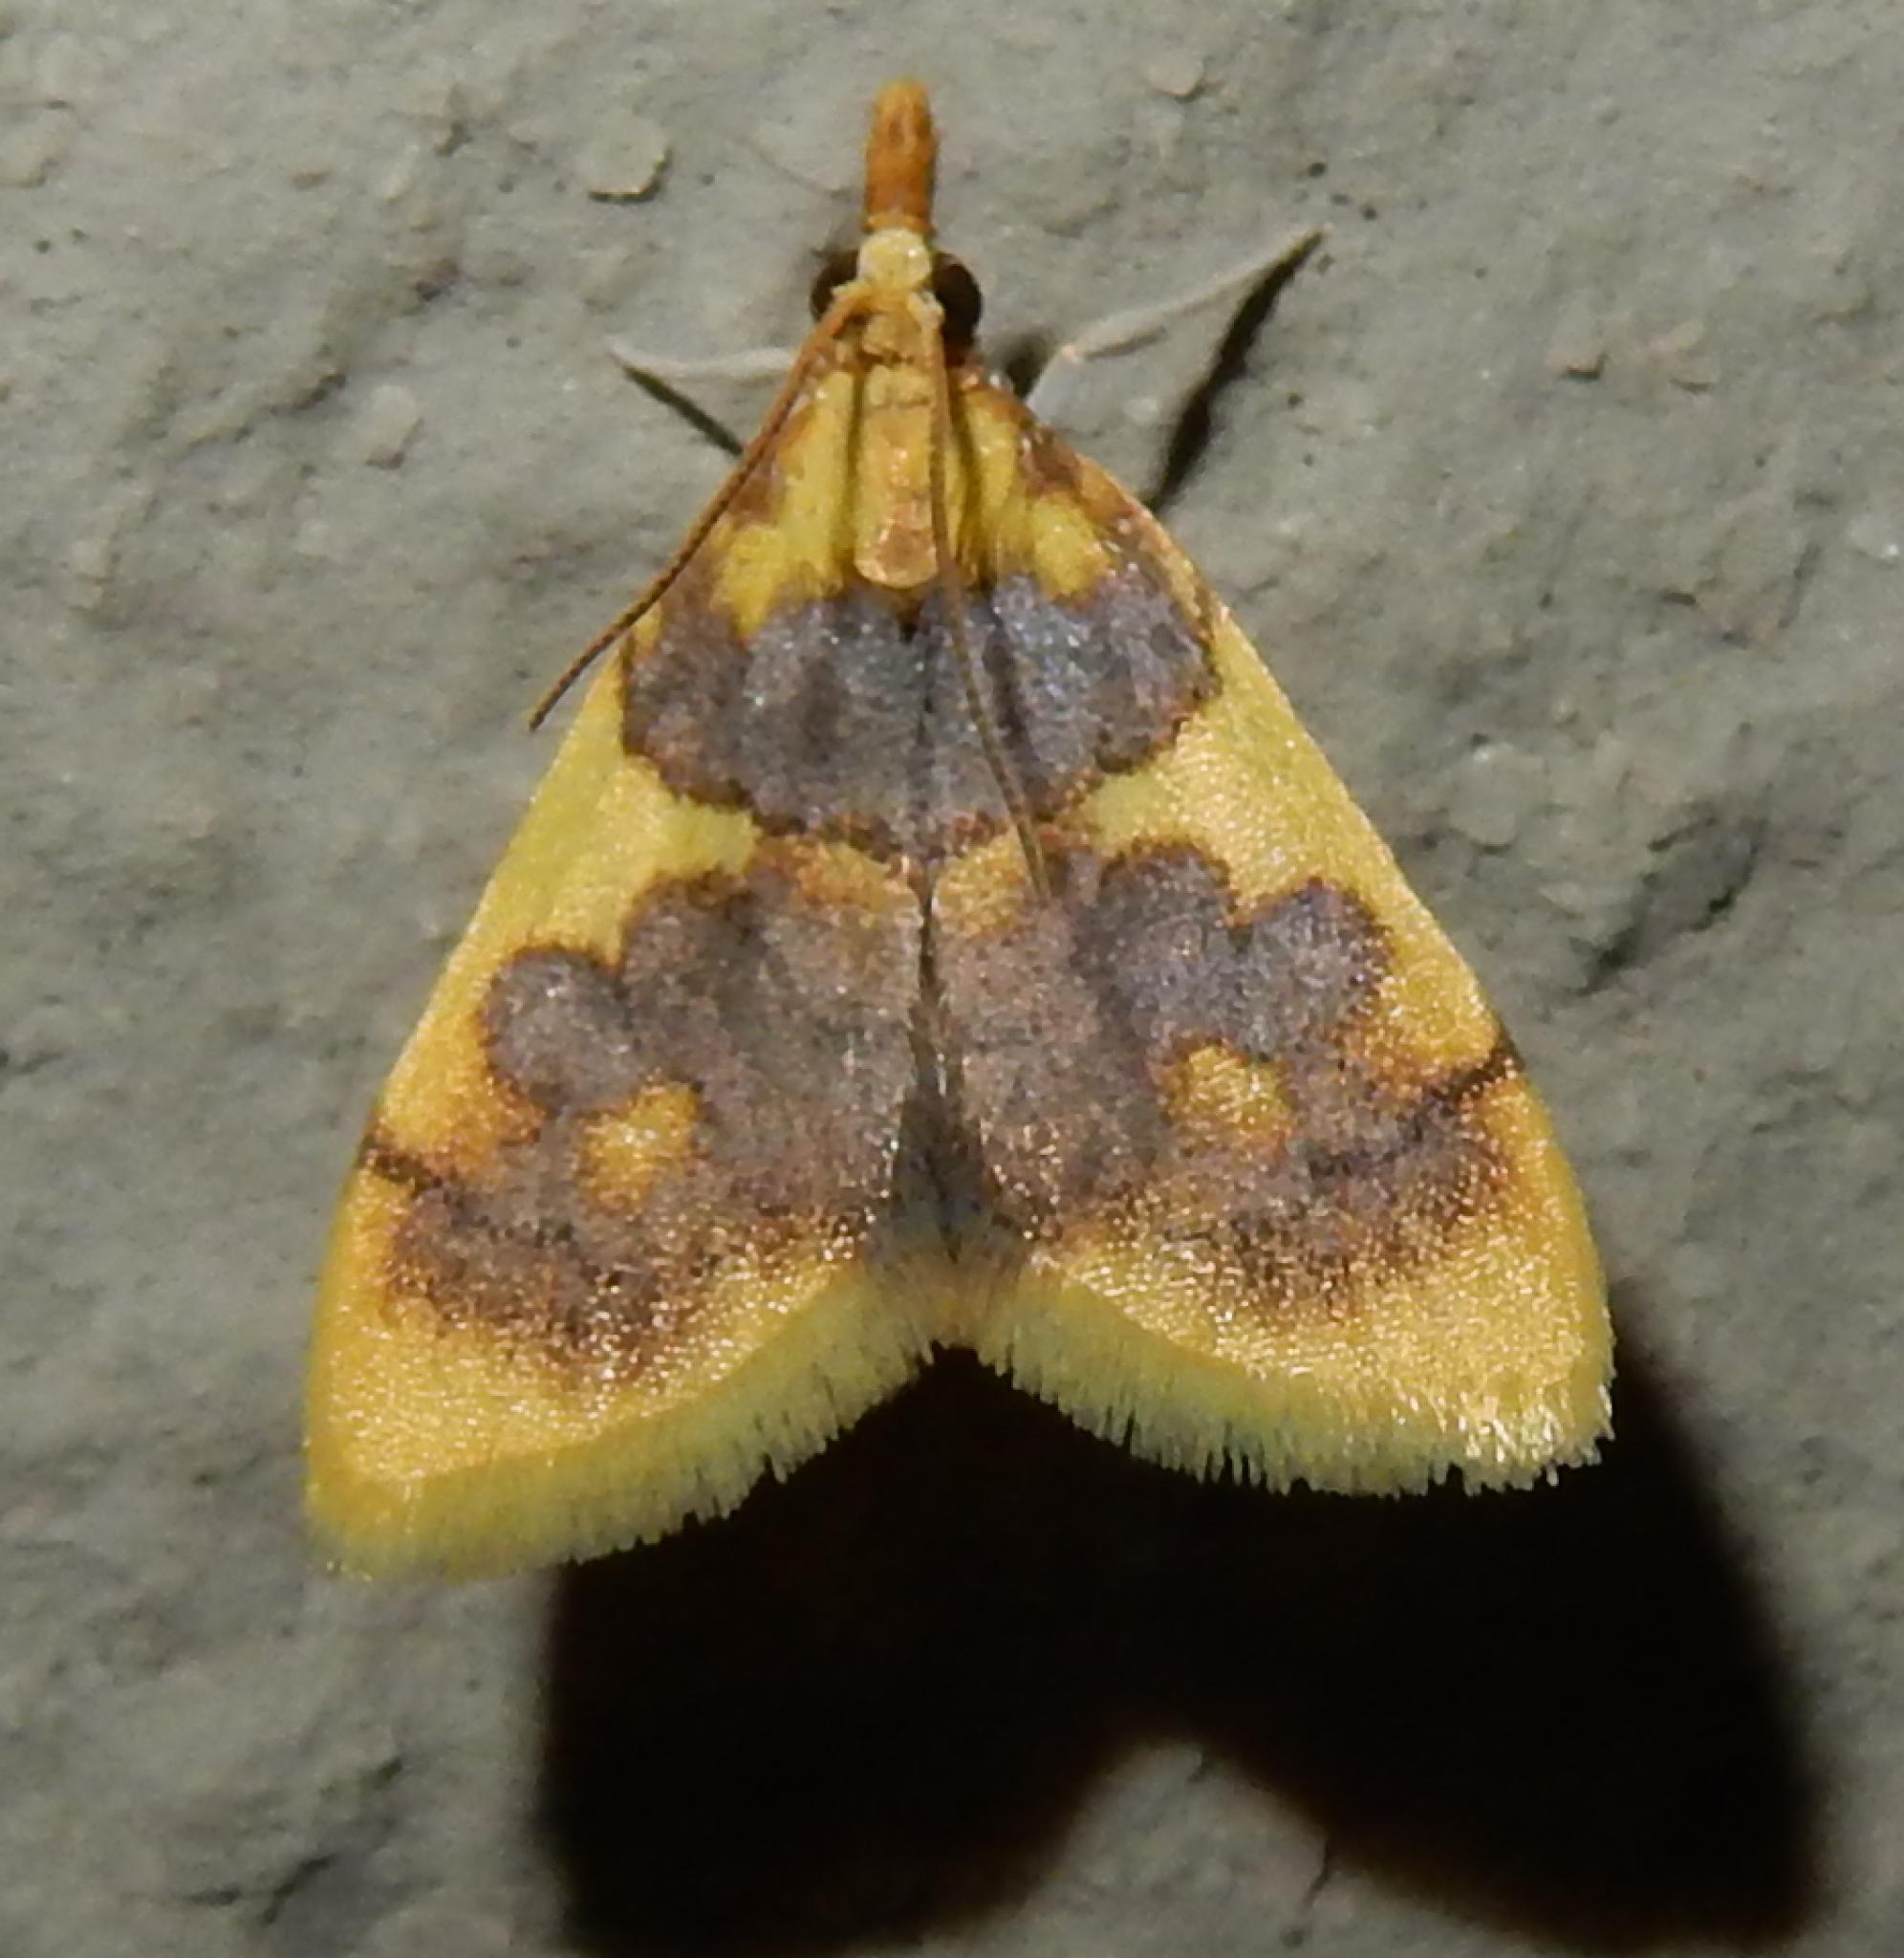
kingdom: Animalia
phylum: Arthropoda
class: Insecta
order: Lepidoptera
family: Crambidae
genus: Thliptoceras
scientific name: Thliptoceras xanthocraspia
